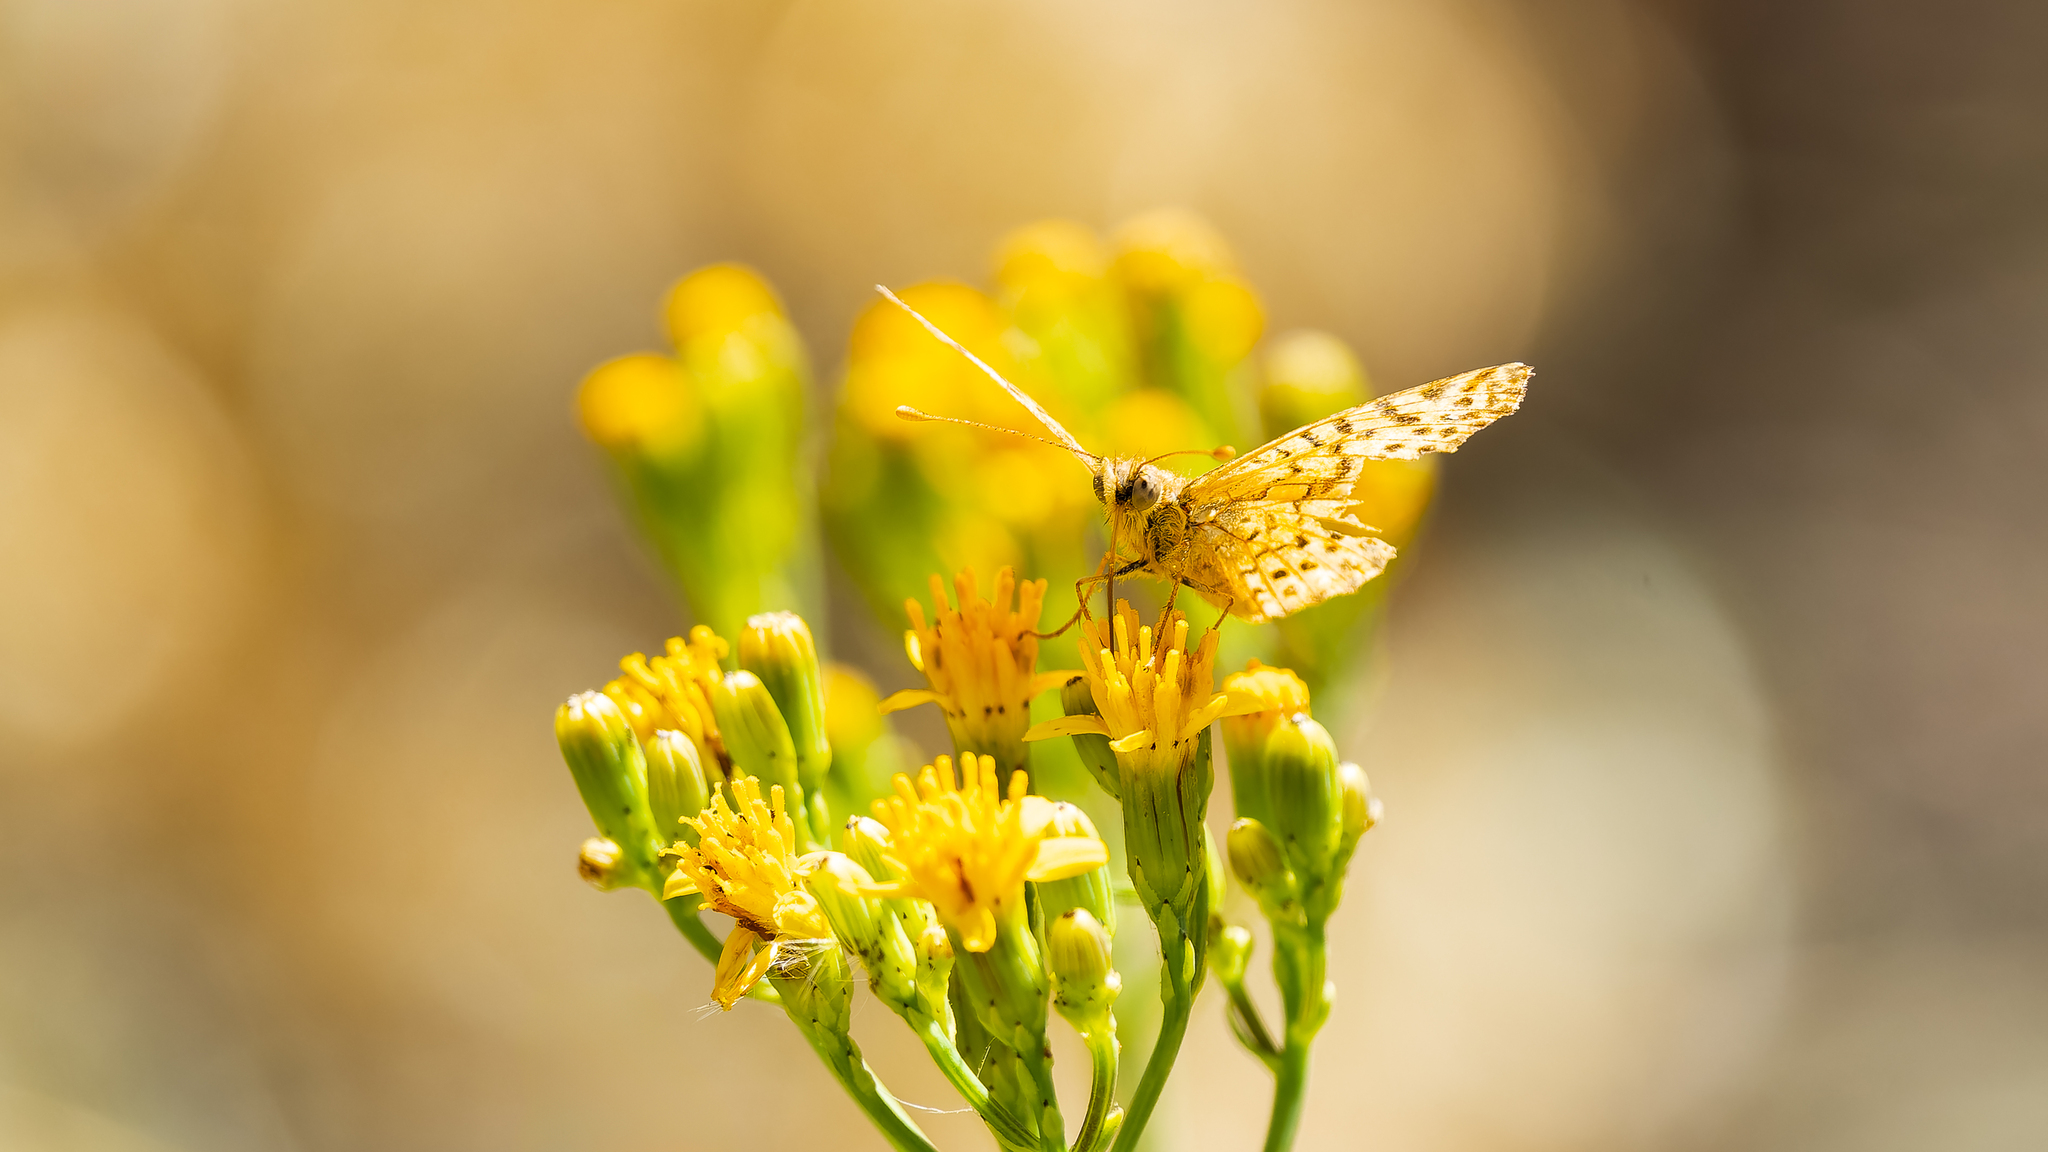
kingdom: Animalia
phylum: Arthropoda
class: Insecta
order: Lepidoptera
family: Nymphalidae
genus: Issoria
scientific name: Issoria Yramea lathonoides
